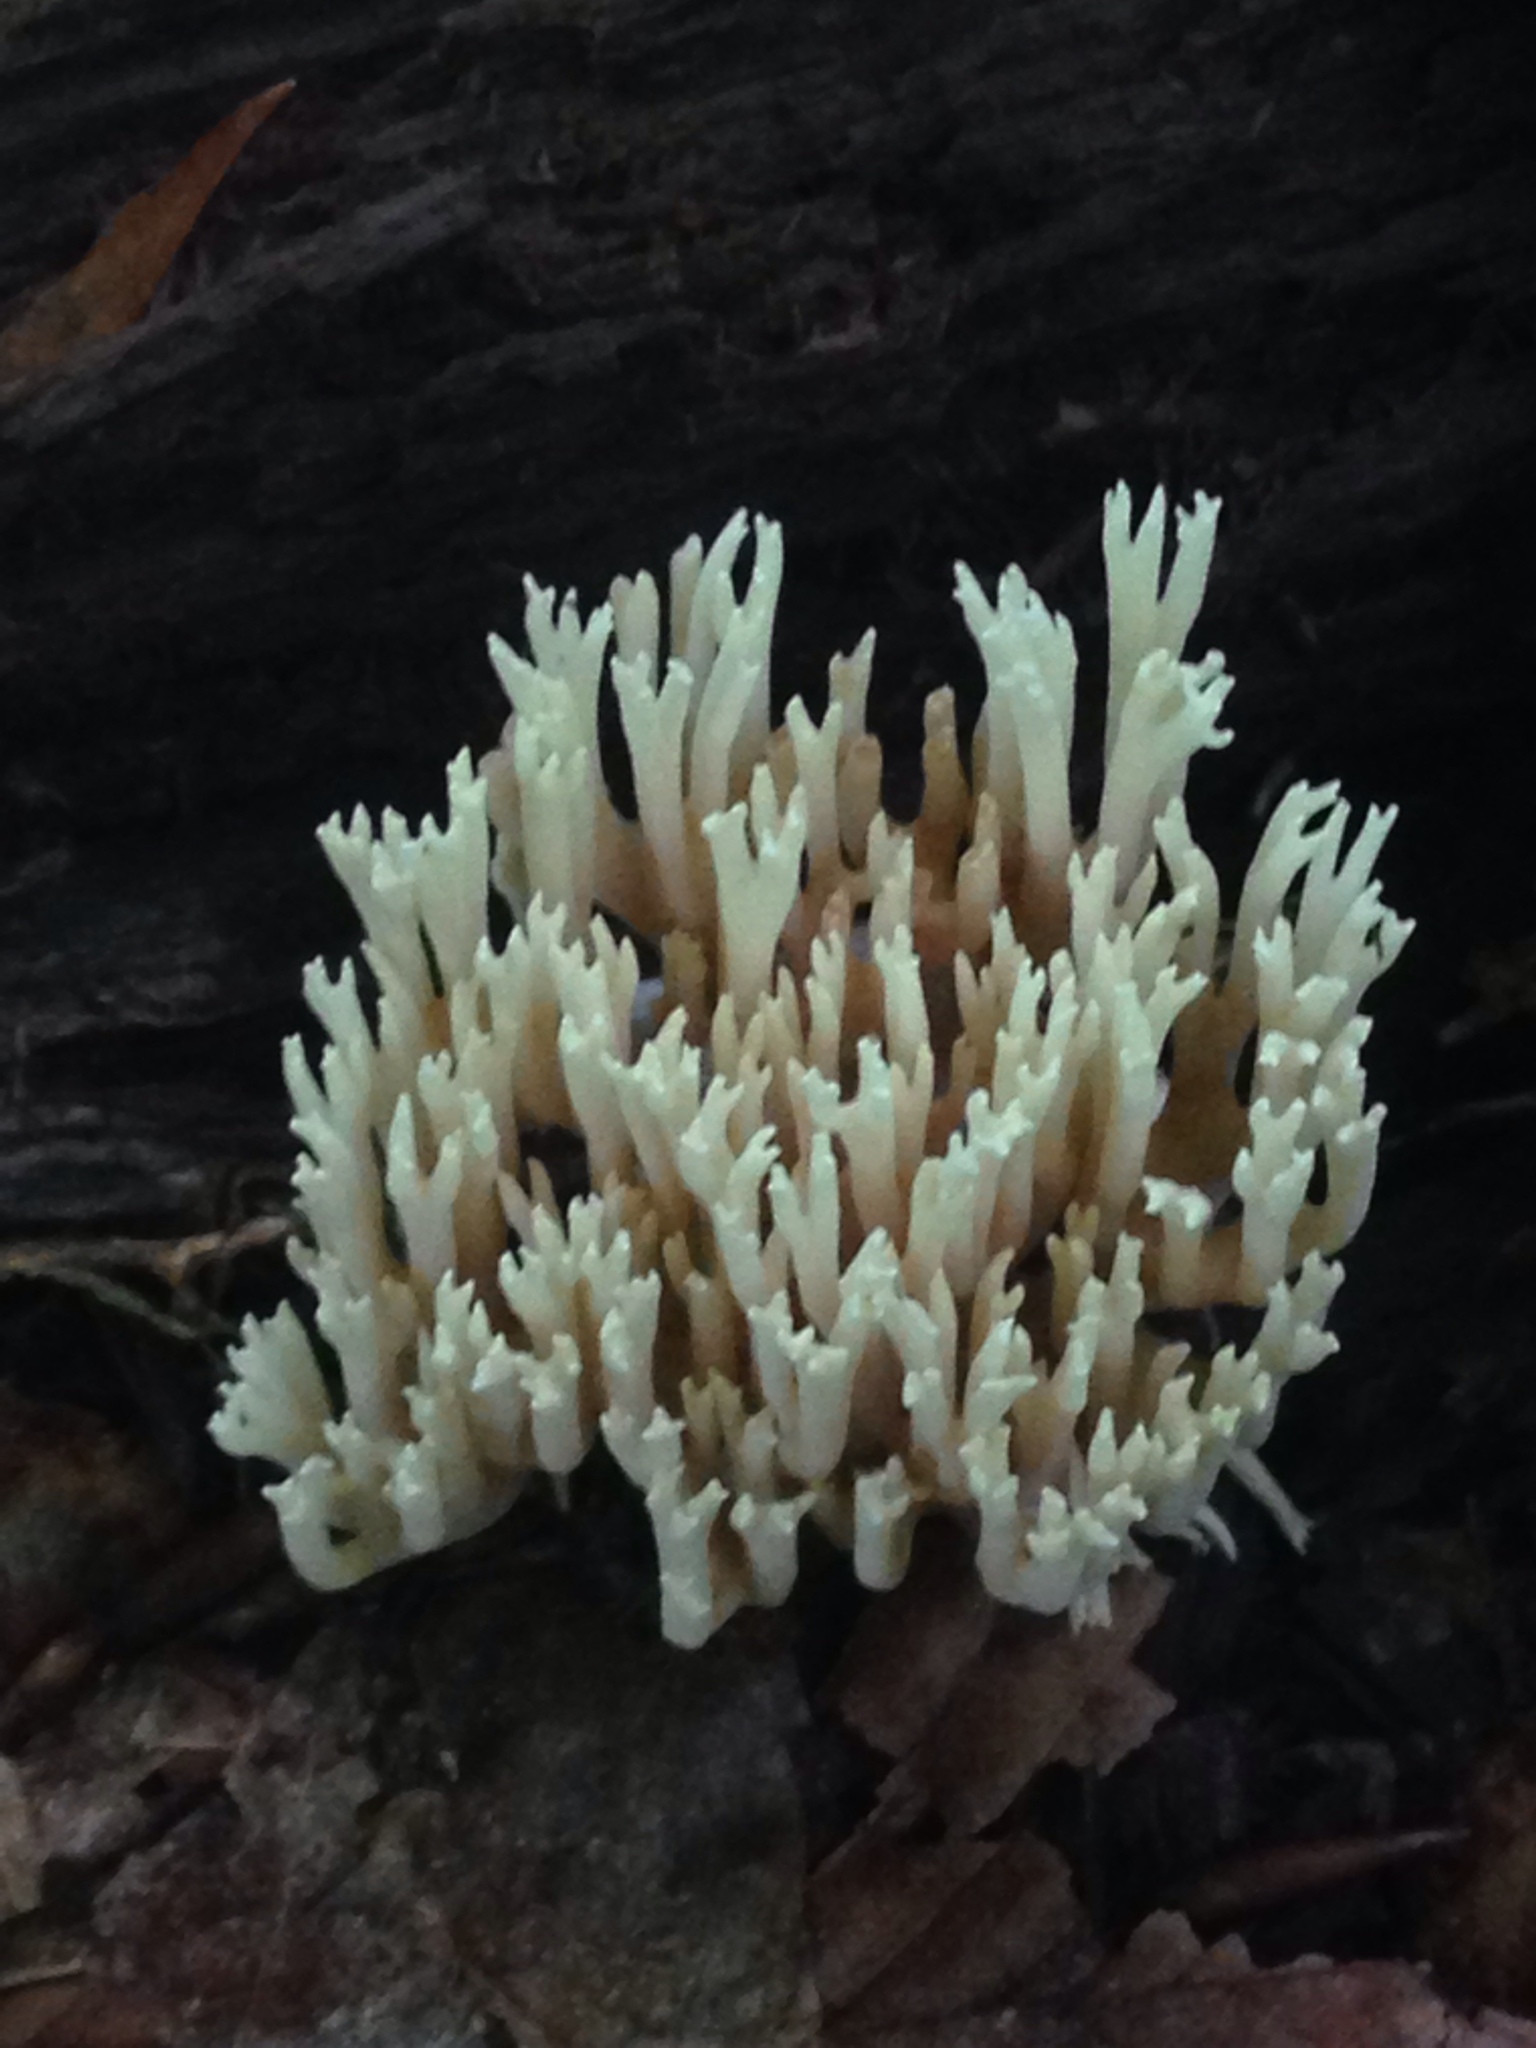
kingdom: Fungi
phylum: Basidiomycota
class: Agaricomycetes
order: Sebacinales
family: Sebacinaceae
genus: Sebacina
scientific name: Sebacina schweinitzii
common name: Jellied false coral fungus
